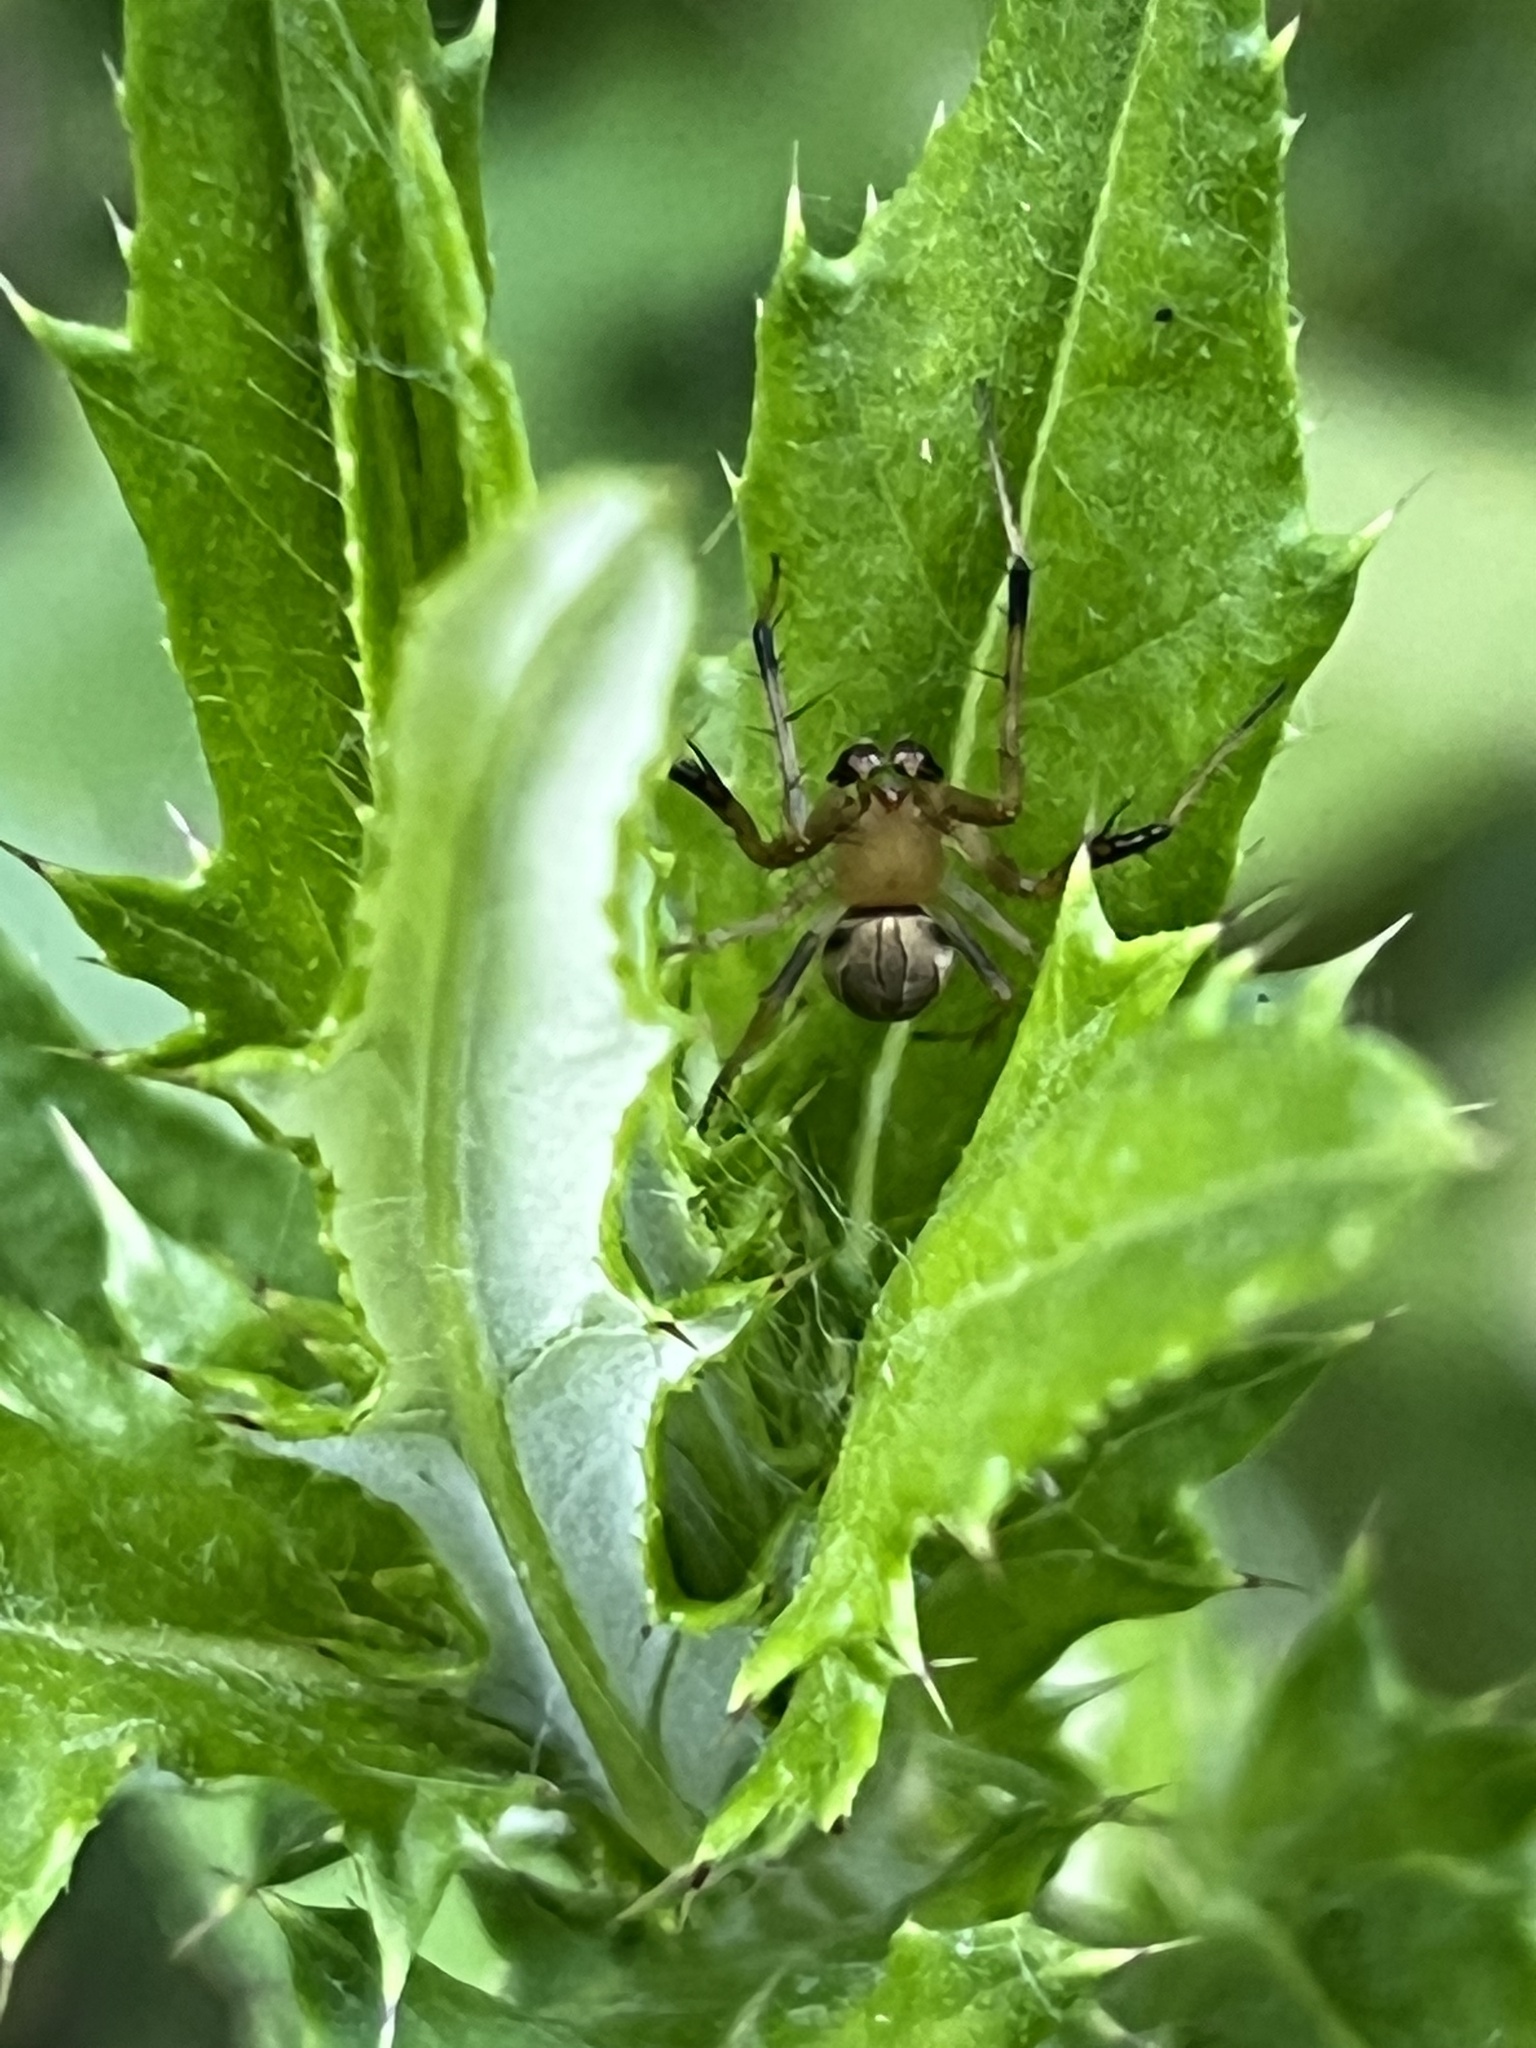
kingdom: Animalia
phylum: Arthropoda
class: Arachnida
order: Araneae
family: Araneidae
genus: Acacesia
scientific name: Acacesia hamata
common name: Orb weavers
